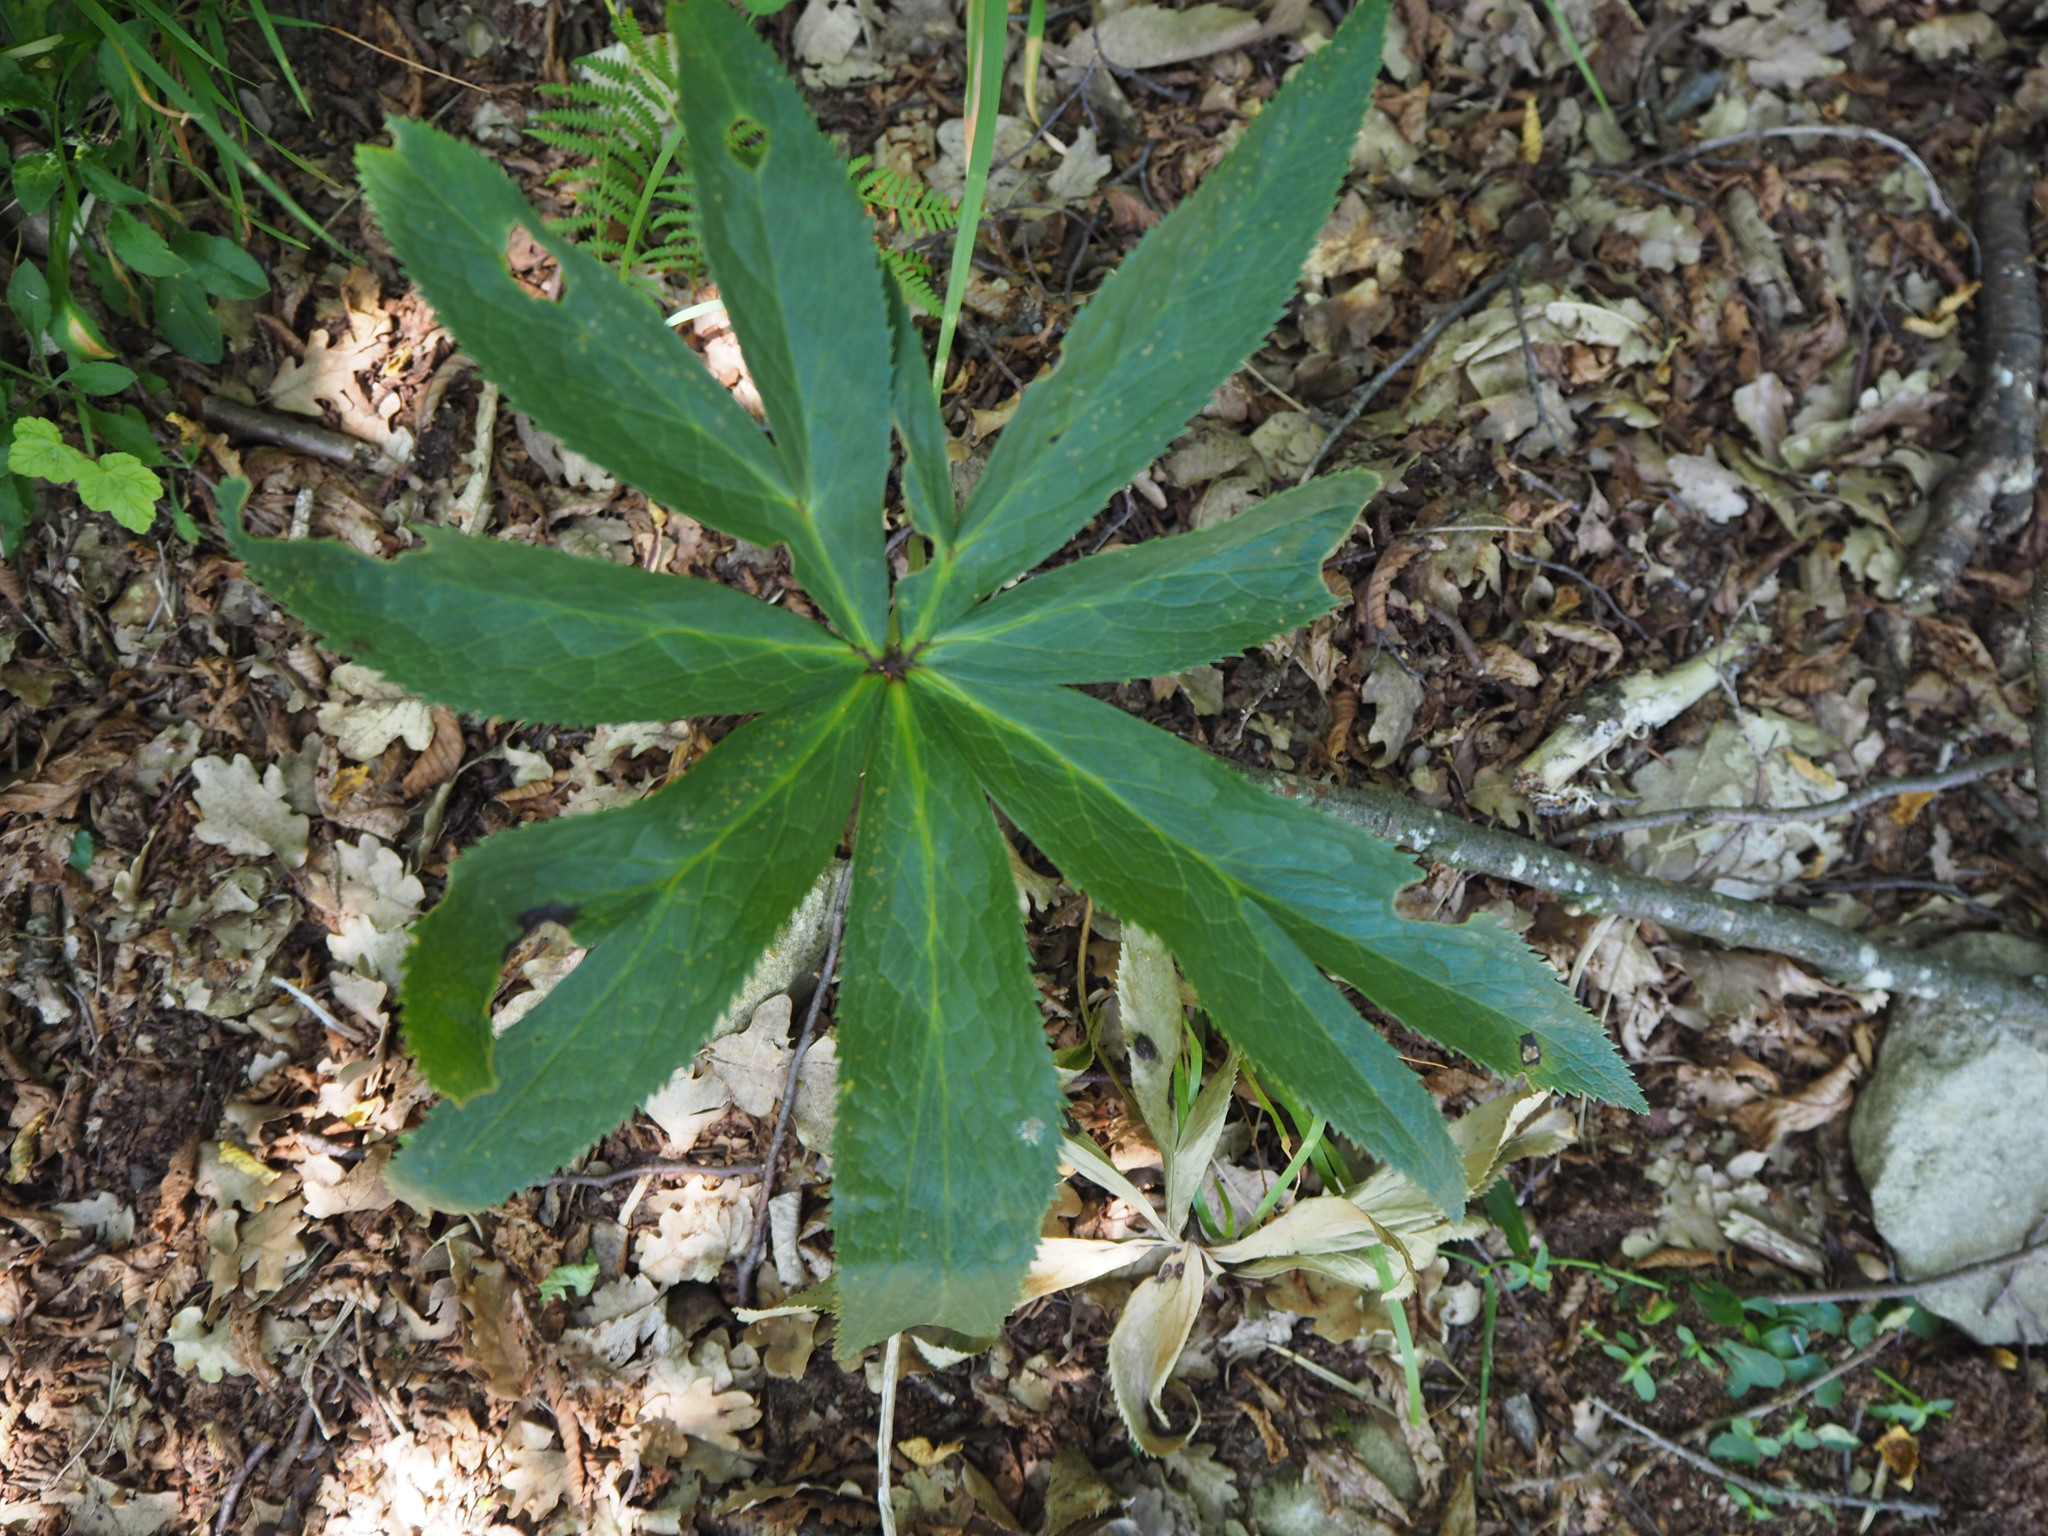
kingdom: Plantae
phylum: Tracheophyta
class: Magnoliopsida
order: Ranunculales
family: Ranunculaceae
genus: Helleborus
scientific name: Helleborus viridis
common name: Green hellebore
